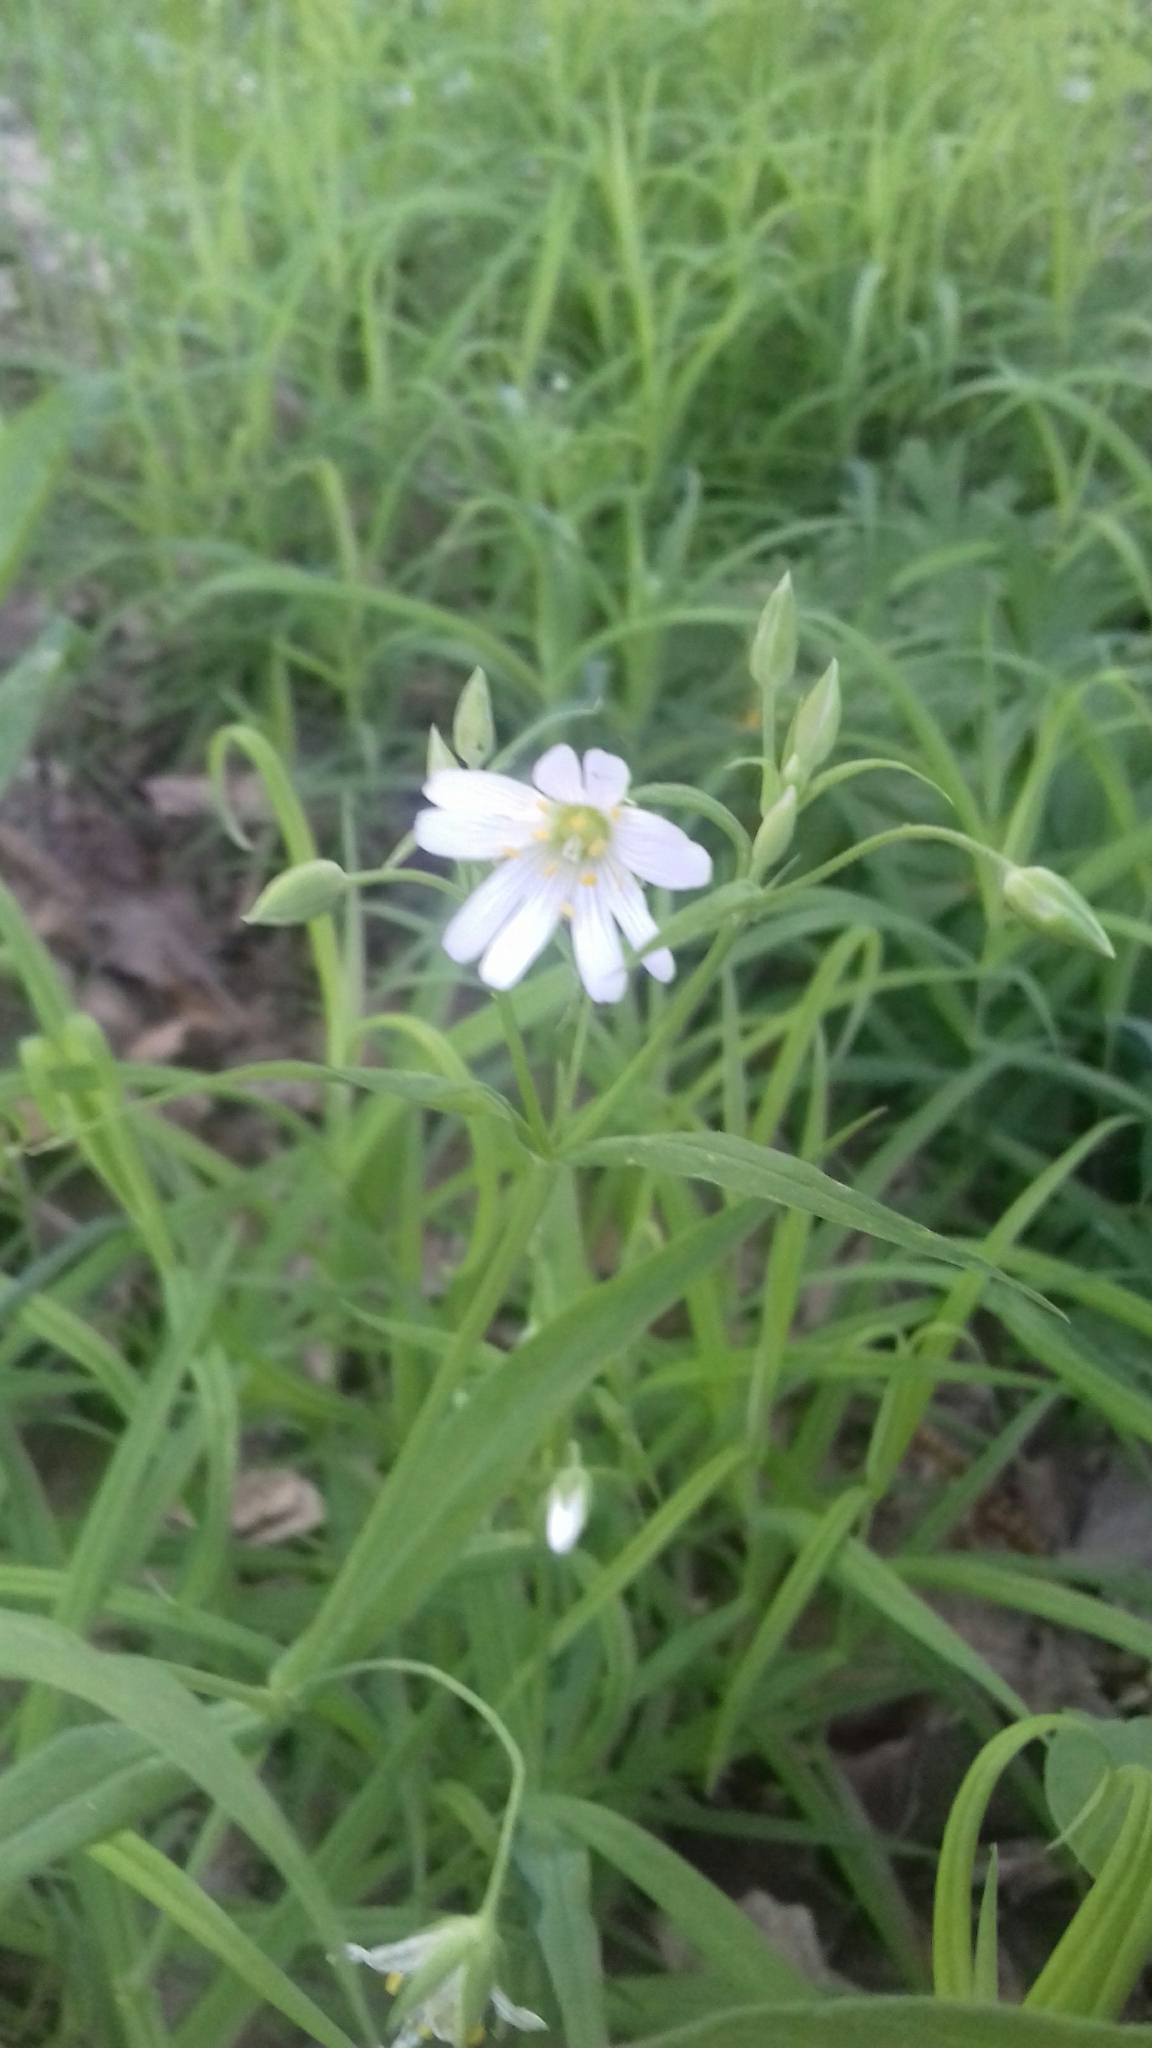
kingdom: Plantae
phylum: Tracheophyta
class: Magnoliopsida
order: Caryophyllales
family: Caryophyllaceae
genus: Rabelera
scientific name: Rabelera holostea
